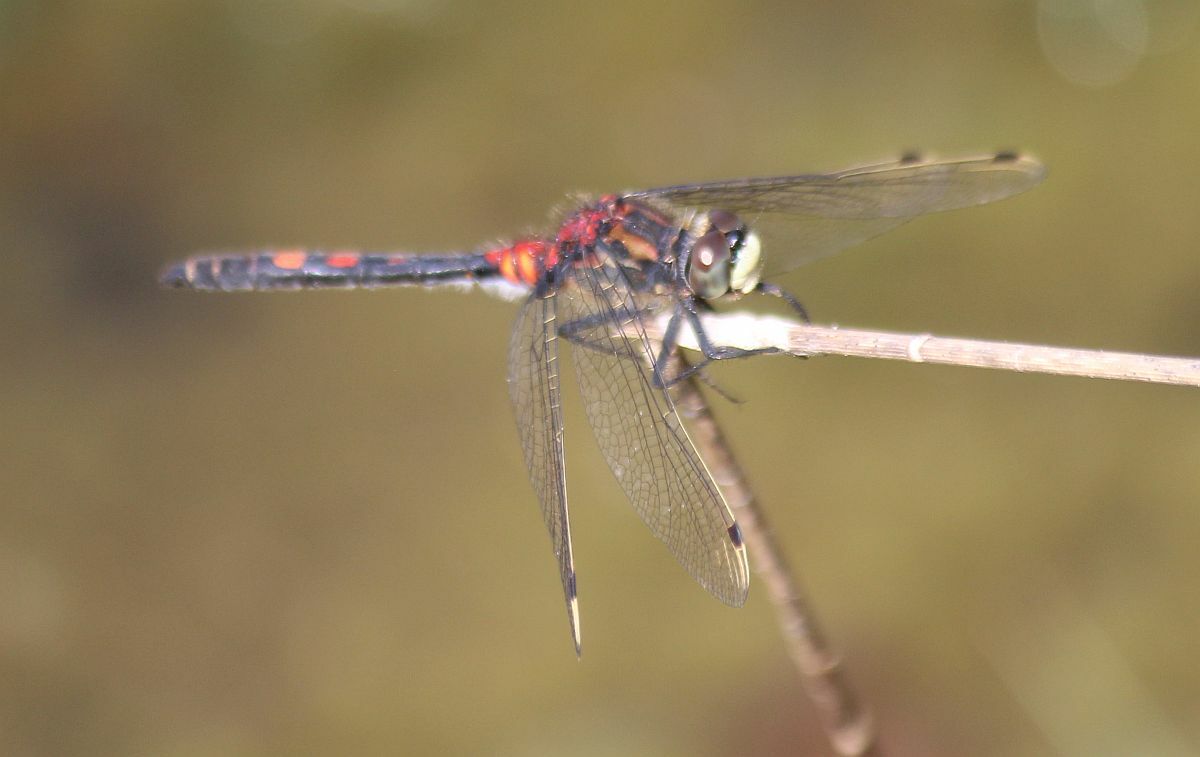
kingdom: Animalia
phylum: Arthropoda
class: Insecta
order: Odonata
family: Libellulidae
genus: Leucorrhinia
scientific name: Leucorrhinia dubia
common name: White-faced darter
